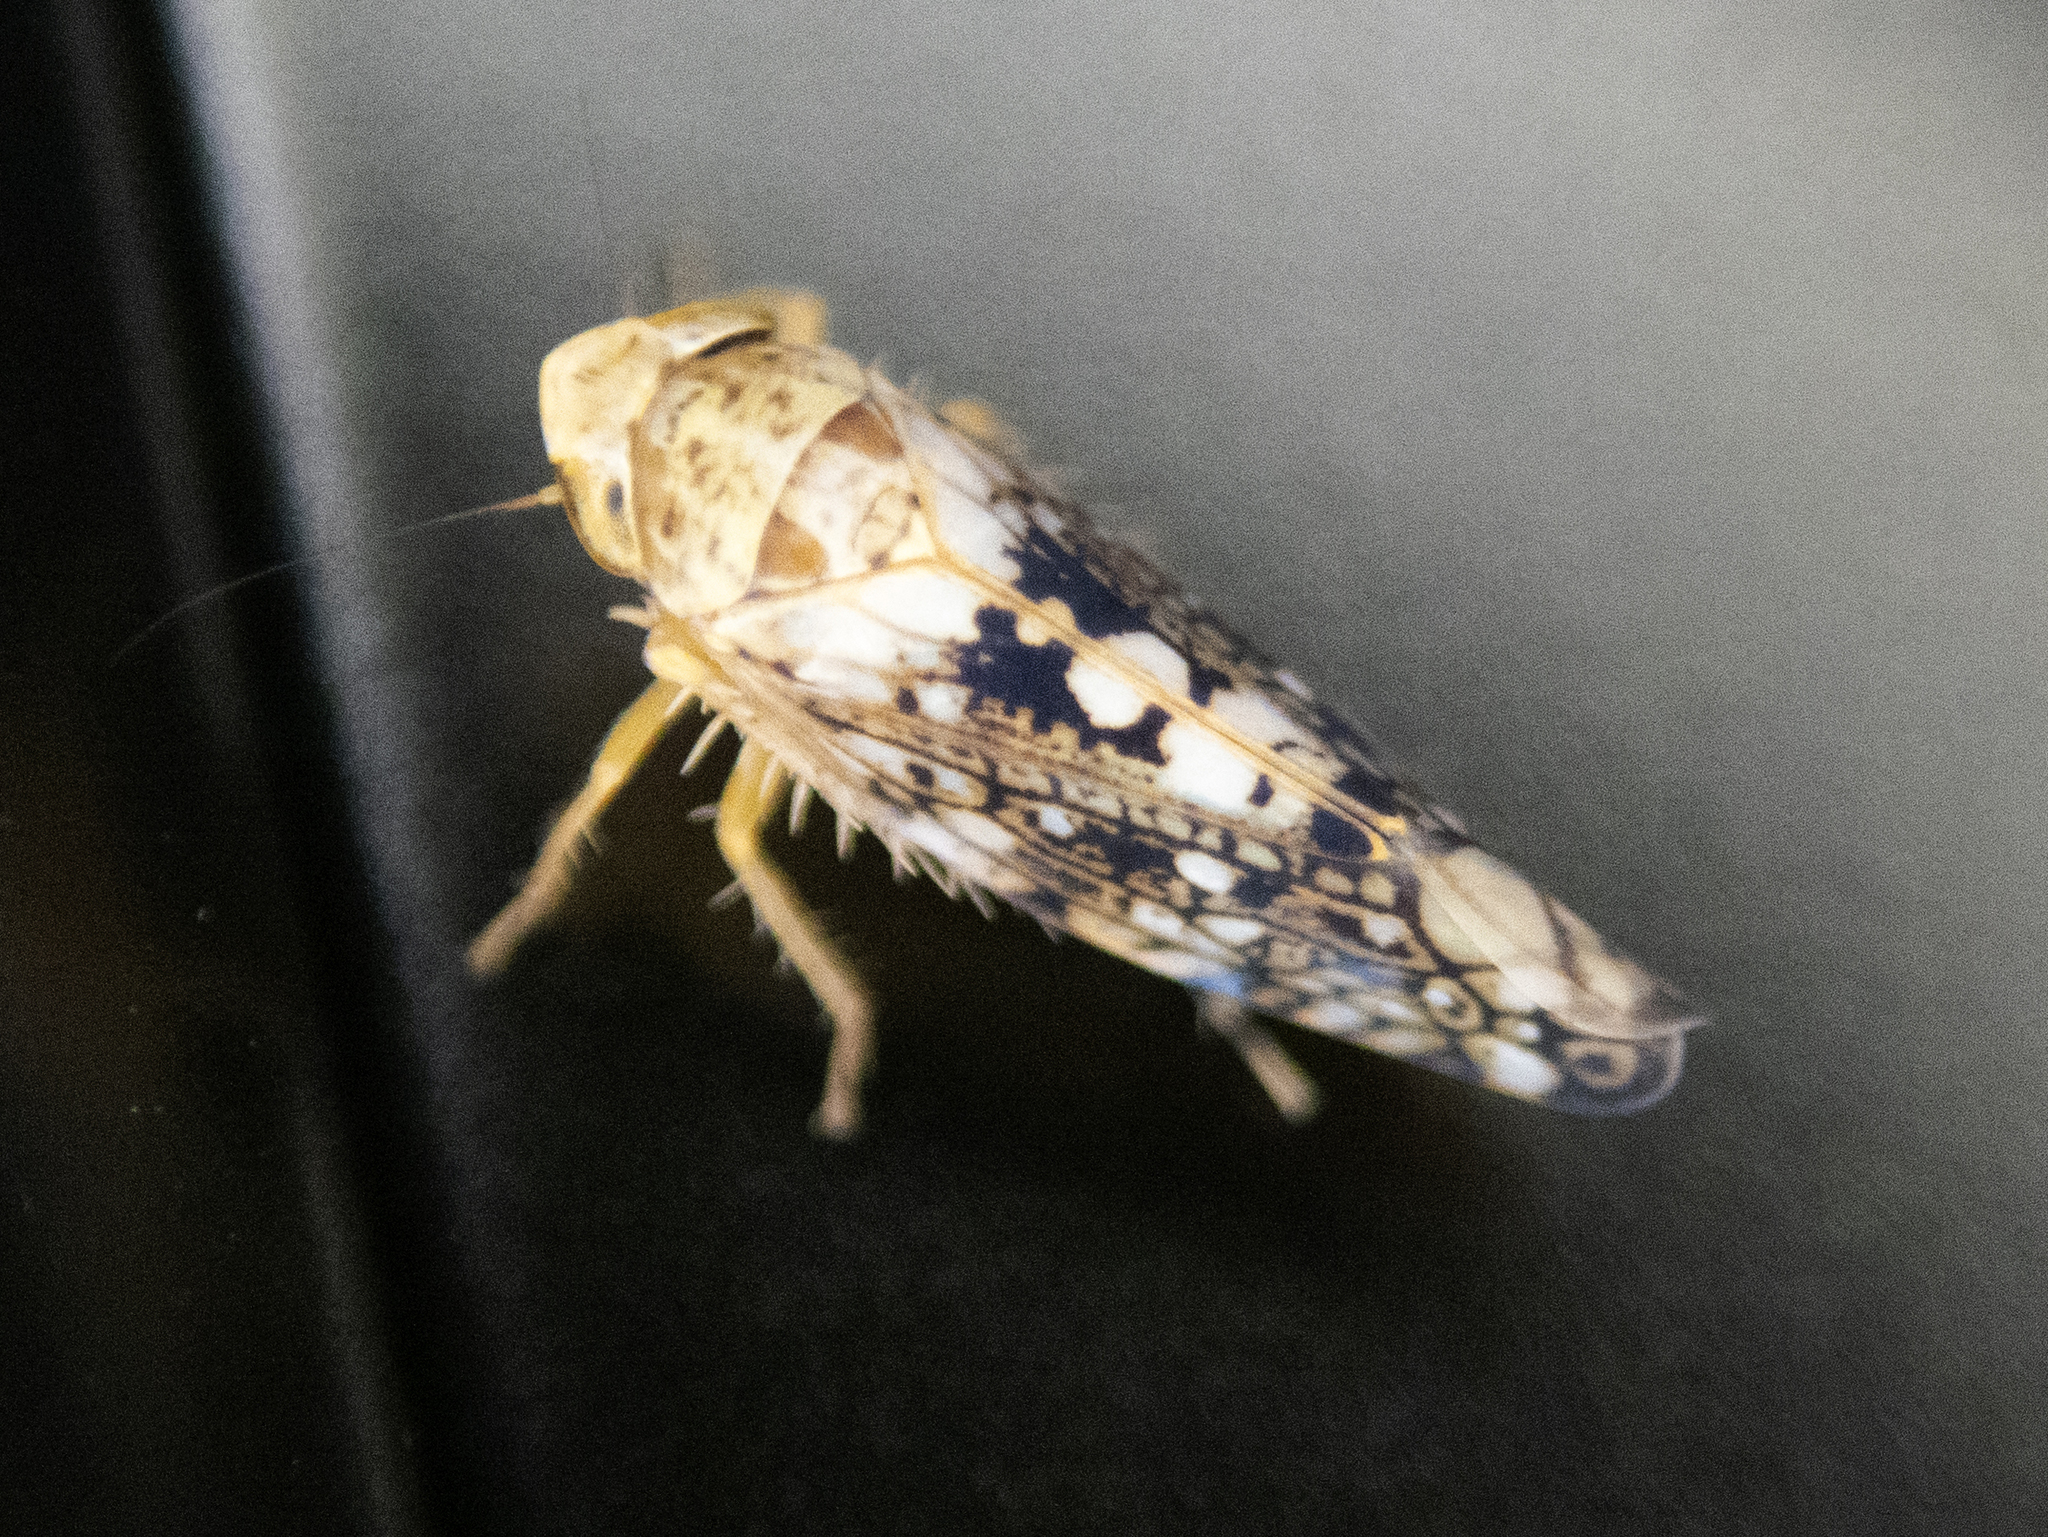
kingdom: Animalia
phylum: Arthropoda
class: Insecta
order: Hemiptera
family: Cicadellidae
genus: Prescottia
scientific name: Prescottia lobata
